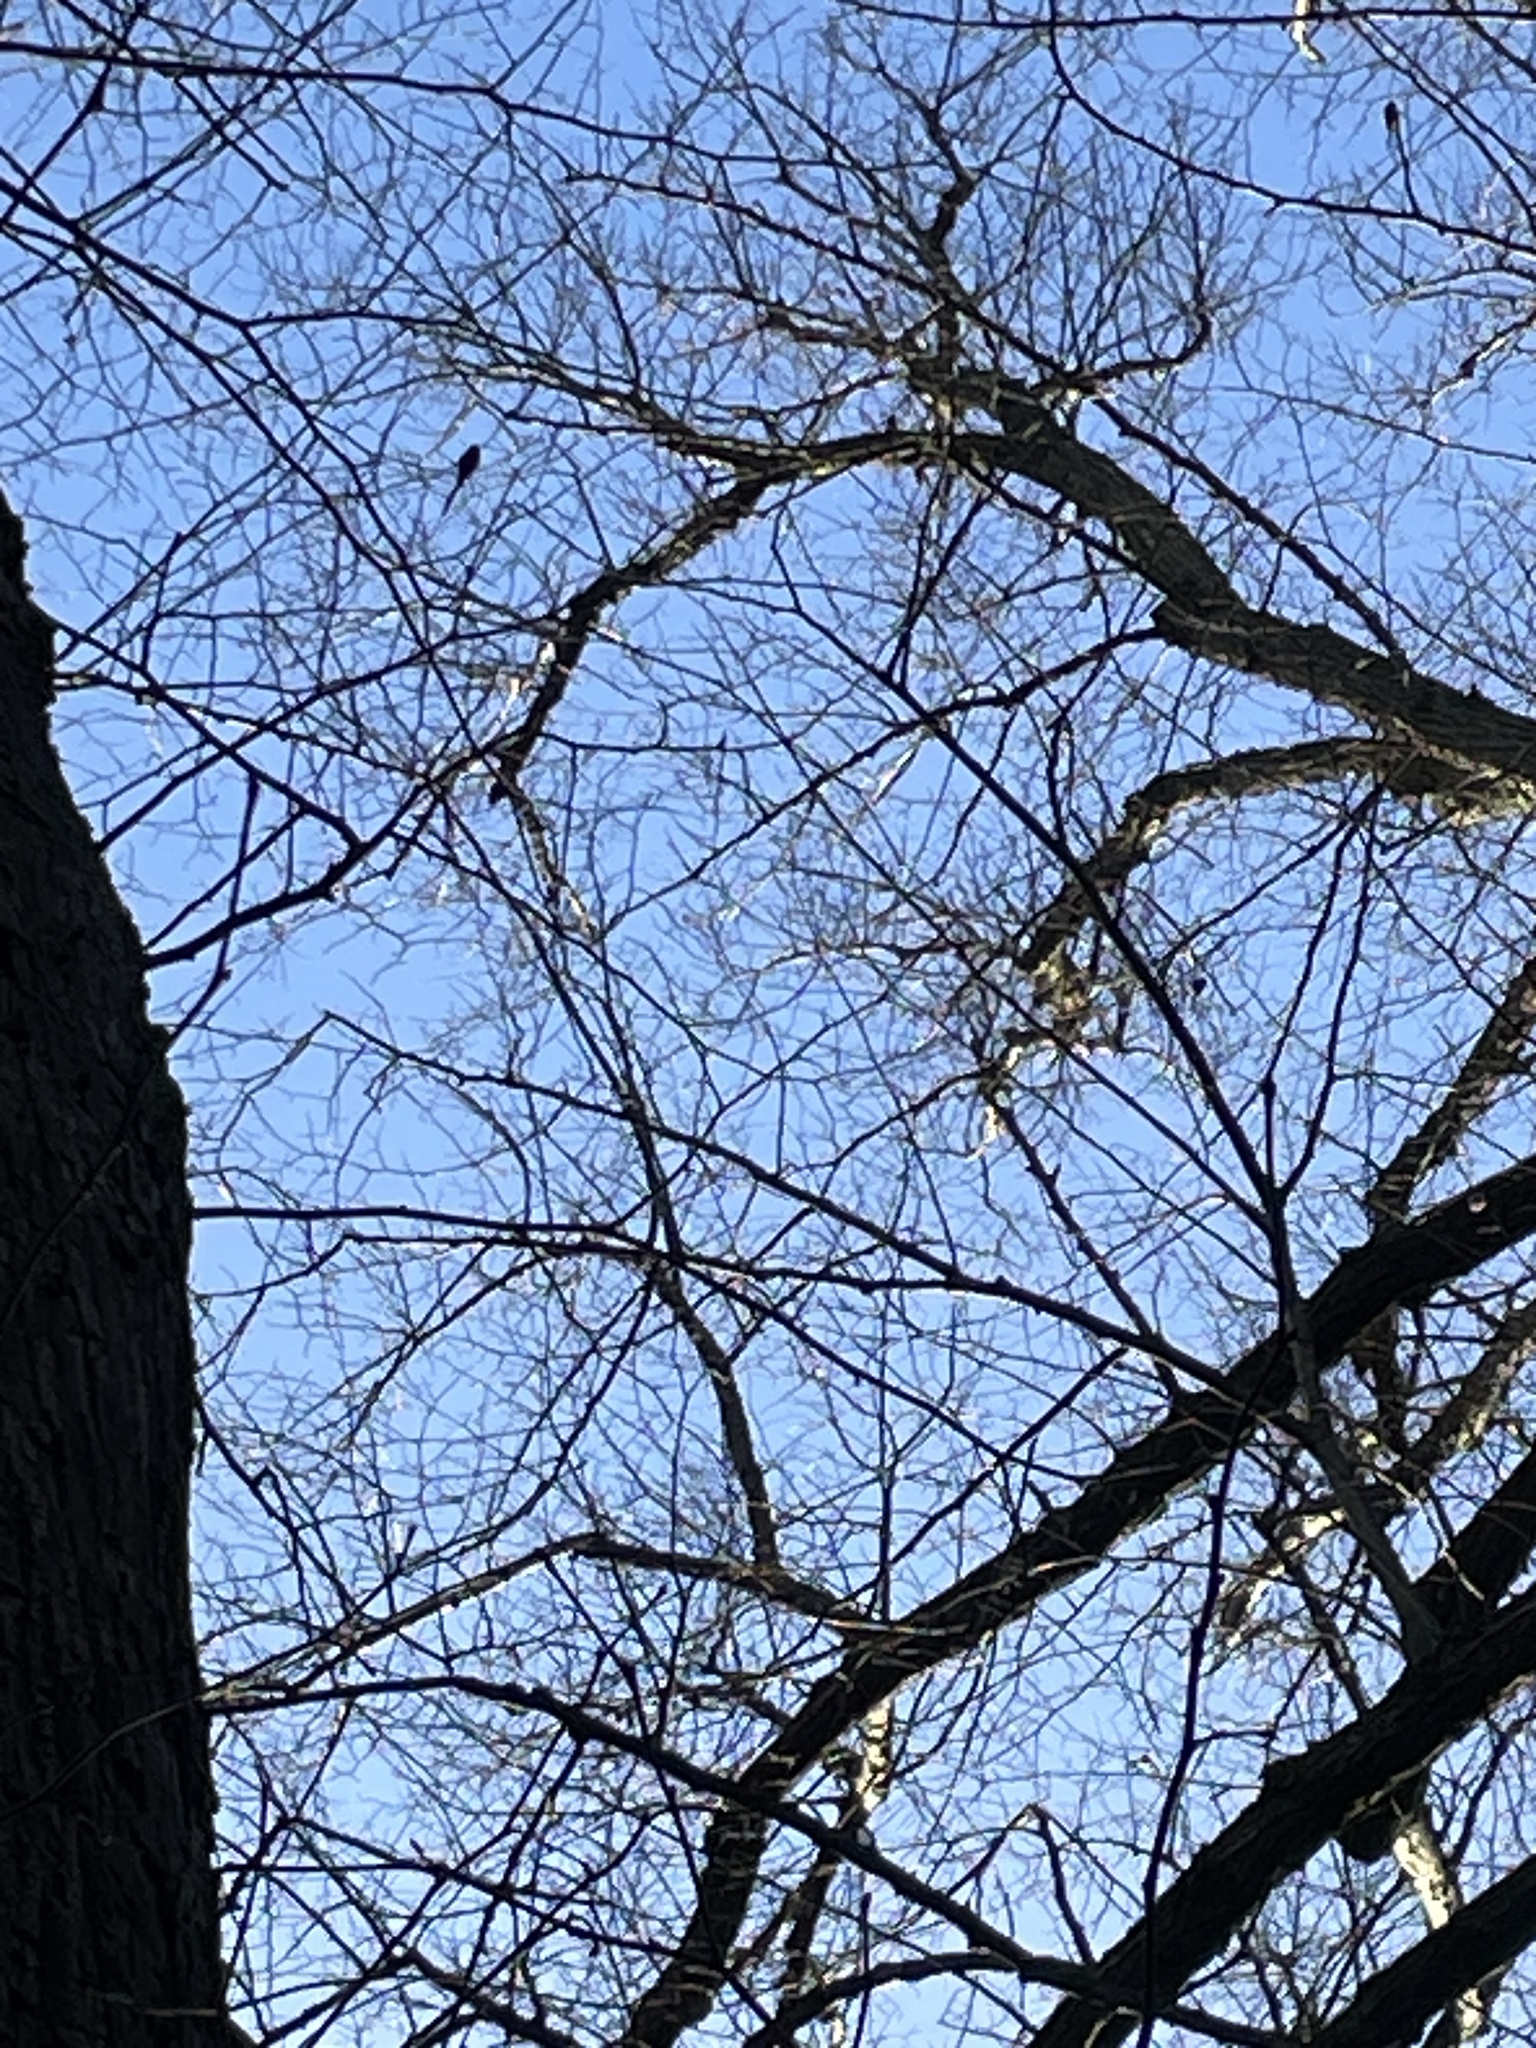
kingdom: Animalia
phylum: Chordata
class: Aves
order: Passeriformes
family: Aegithalidae
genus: Aegithalos
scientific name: Aegithalos caudatus
